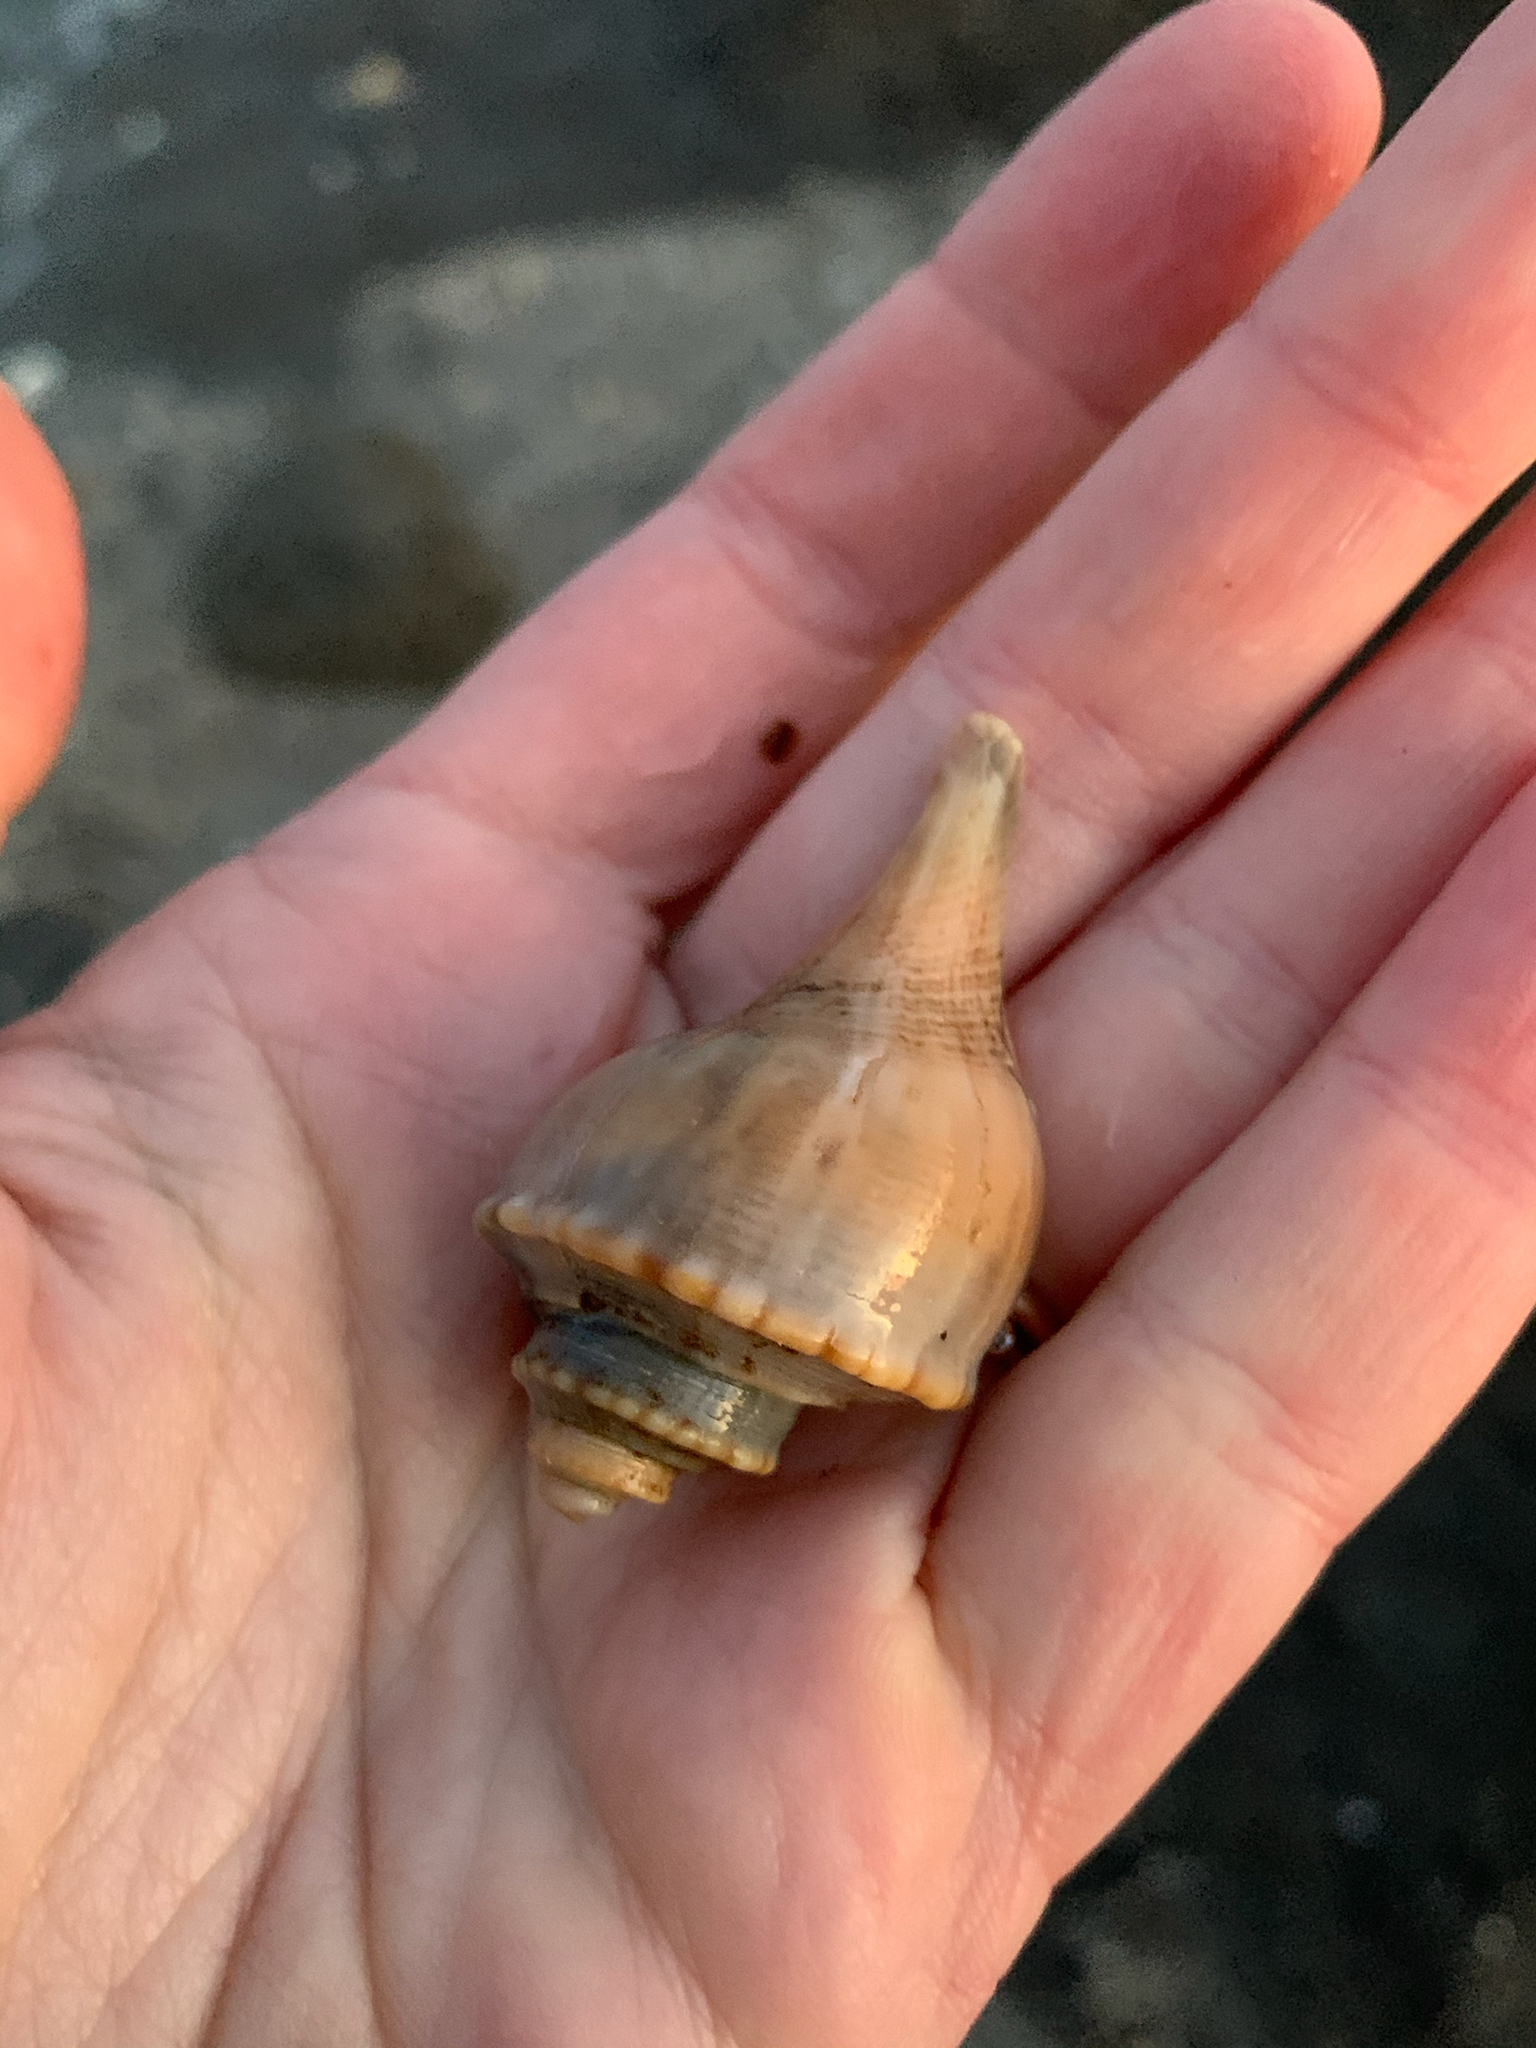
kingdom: Animalia
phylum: Mollusca
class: Gastropoda
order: Neogastropoda
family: Busyconidae
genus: Busycotypus
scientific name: Busycotypus canaliculatus
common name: Channeled whelk
